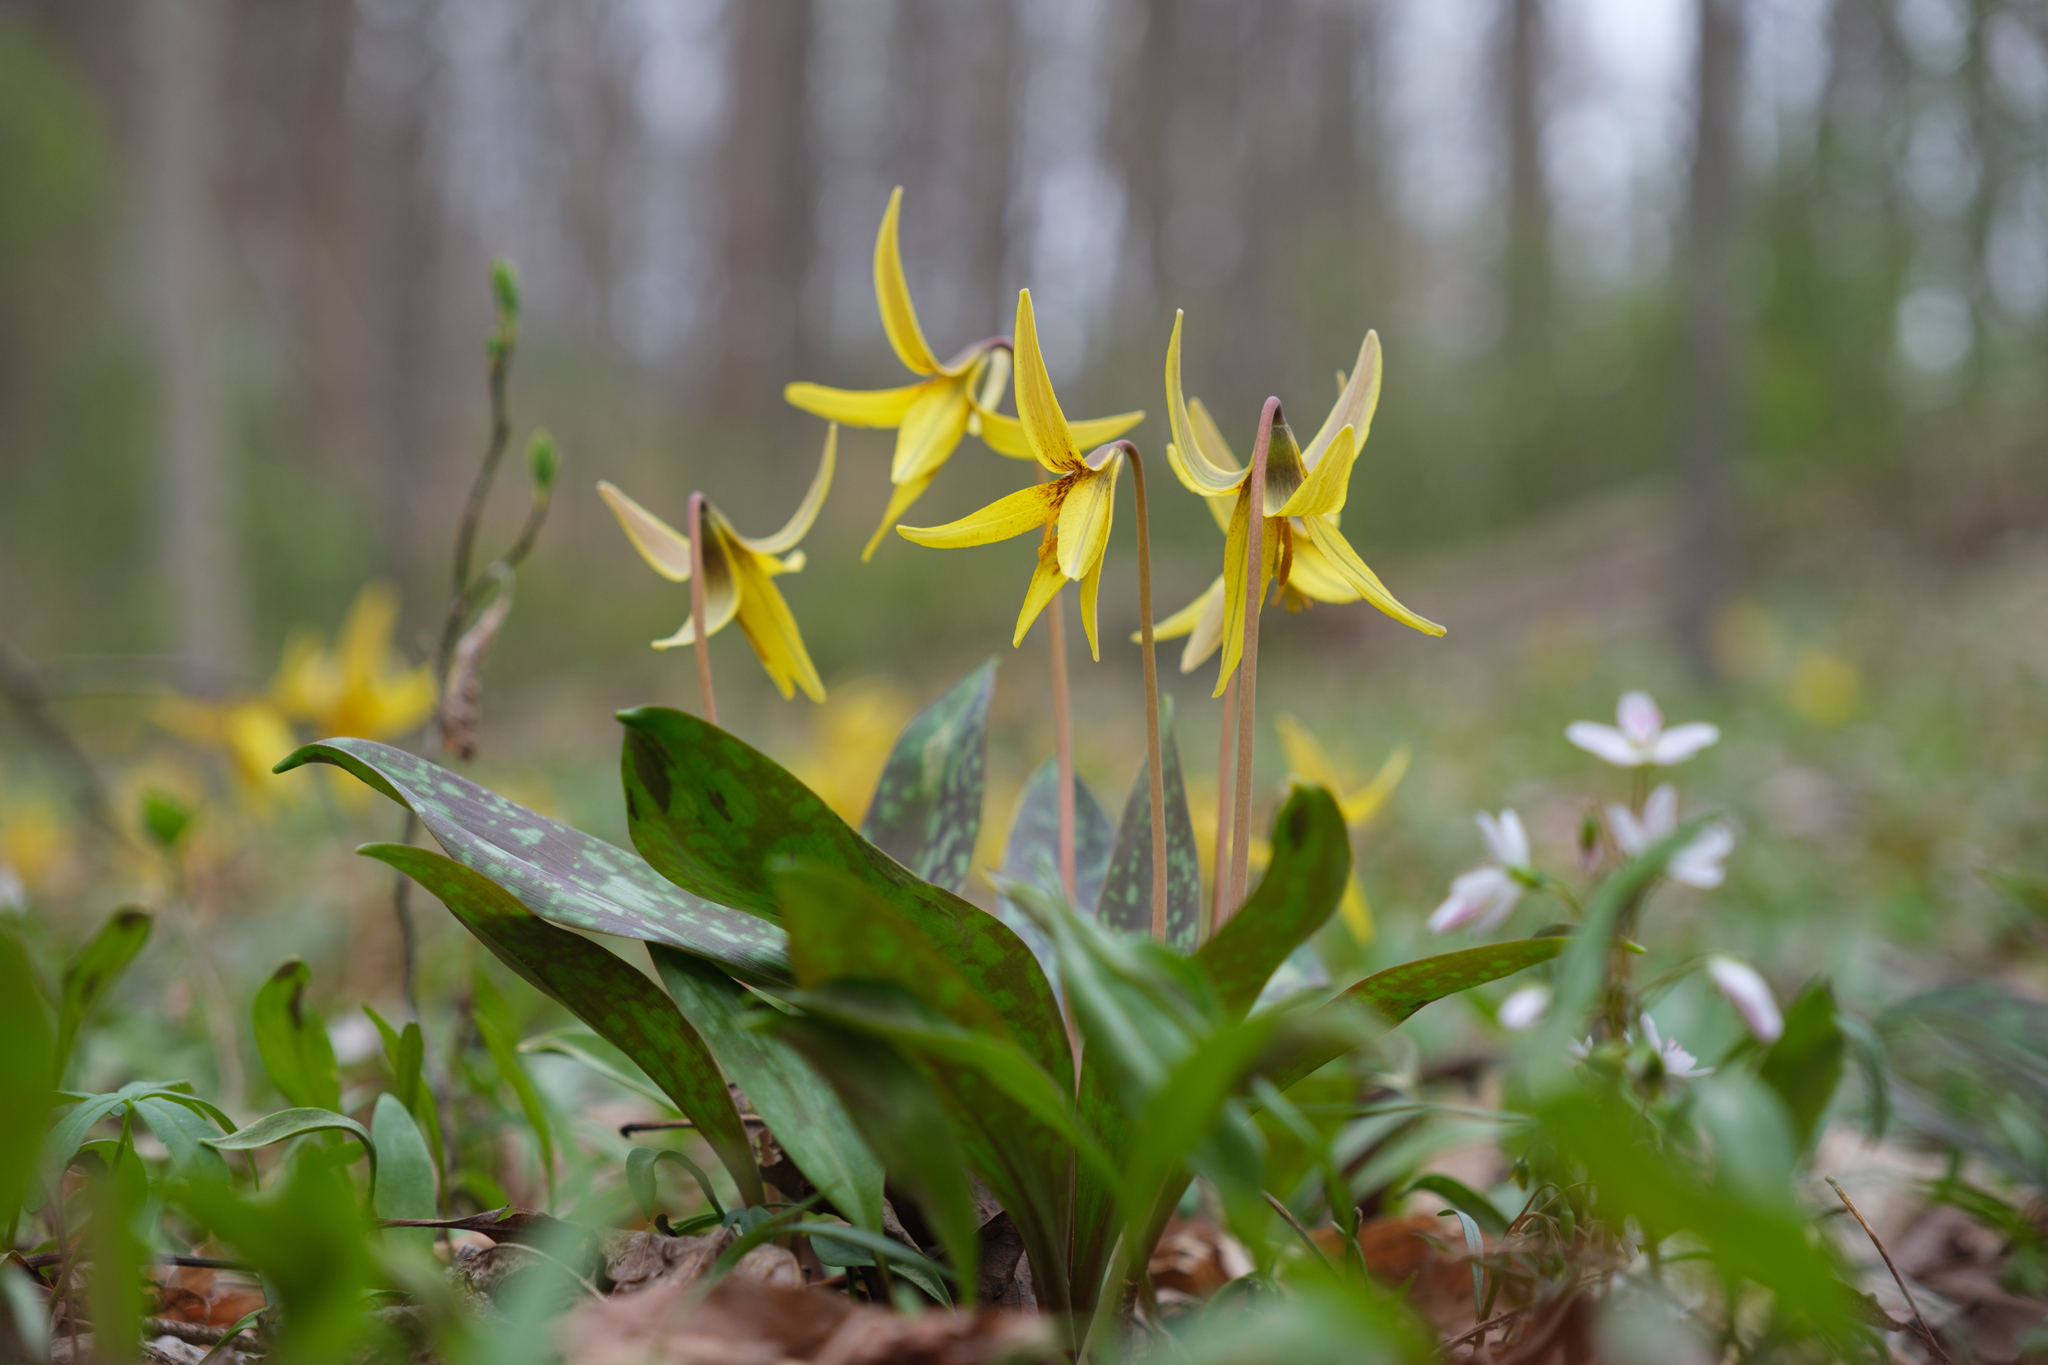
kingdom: Plantae
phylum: Tracheophyta
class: Liliopsida
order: Liliales
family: Liliaceae
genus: Erythronium
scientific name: Erythronium americanum
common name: Yellow adder's-tongue
